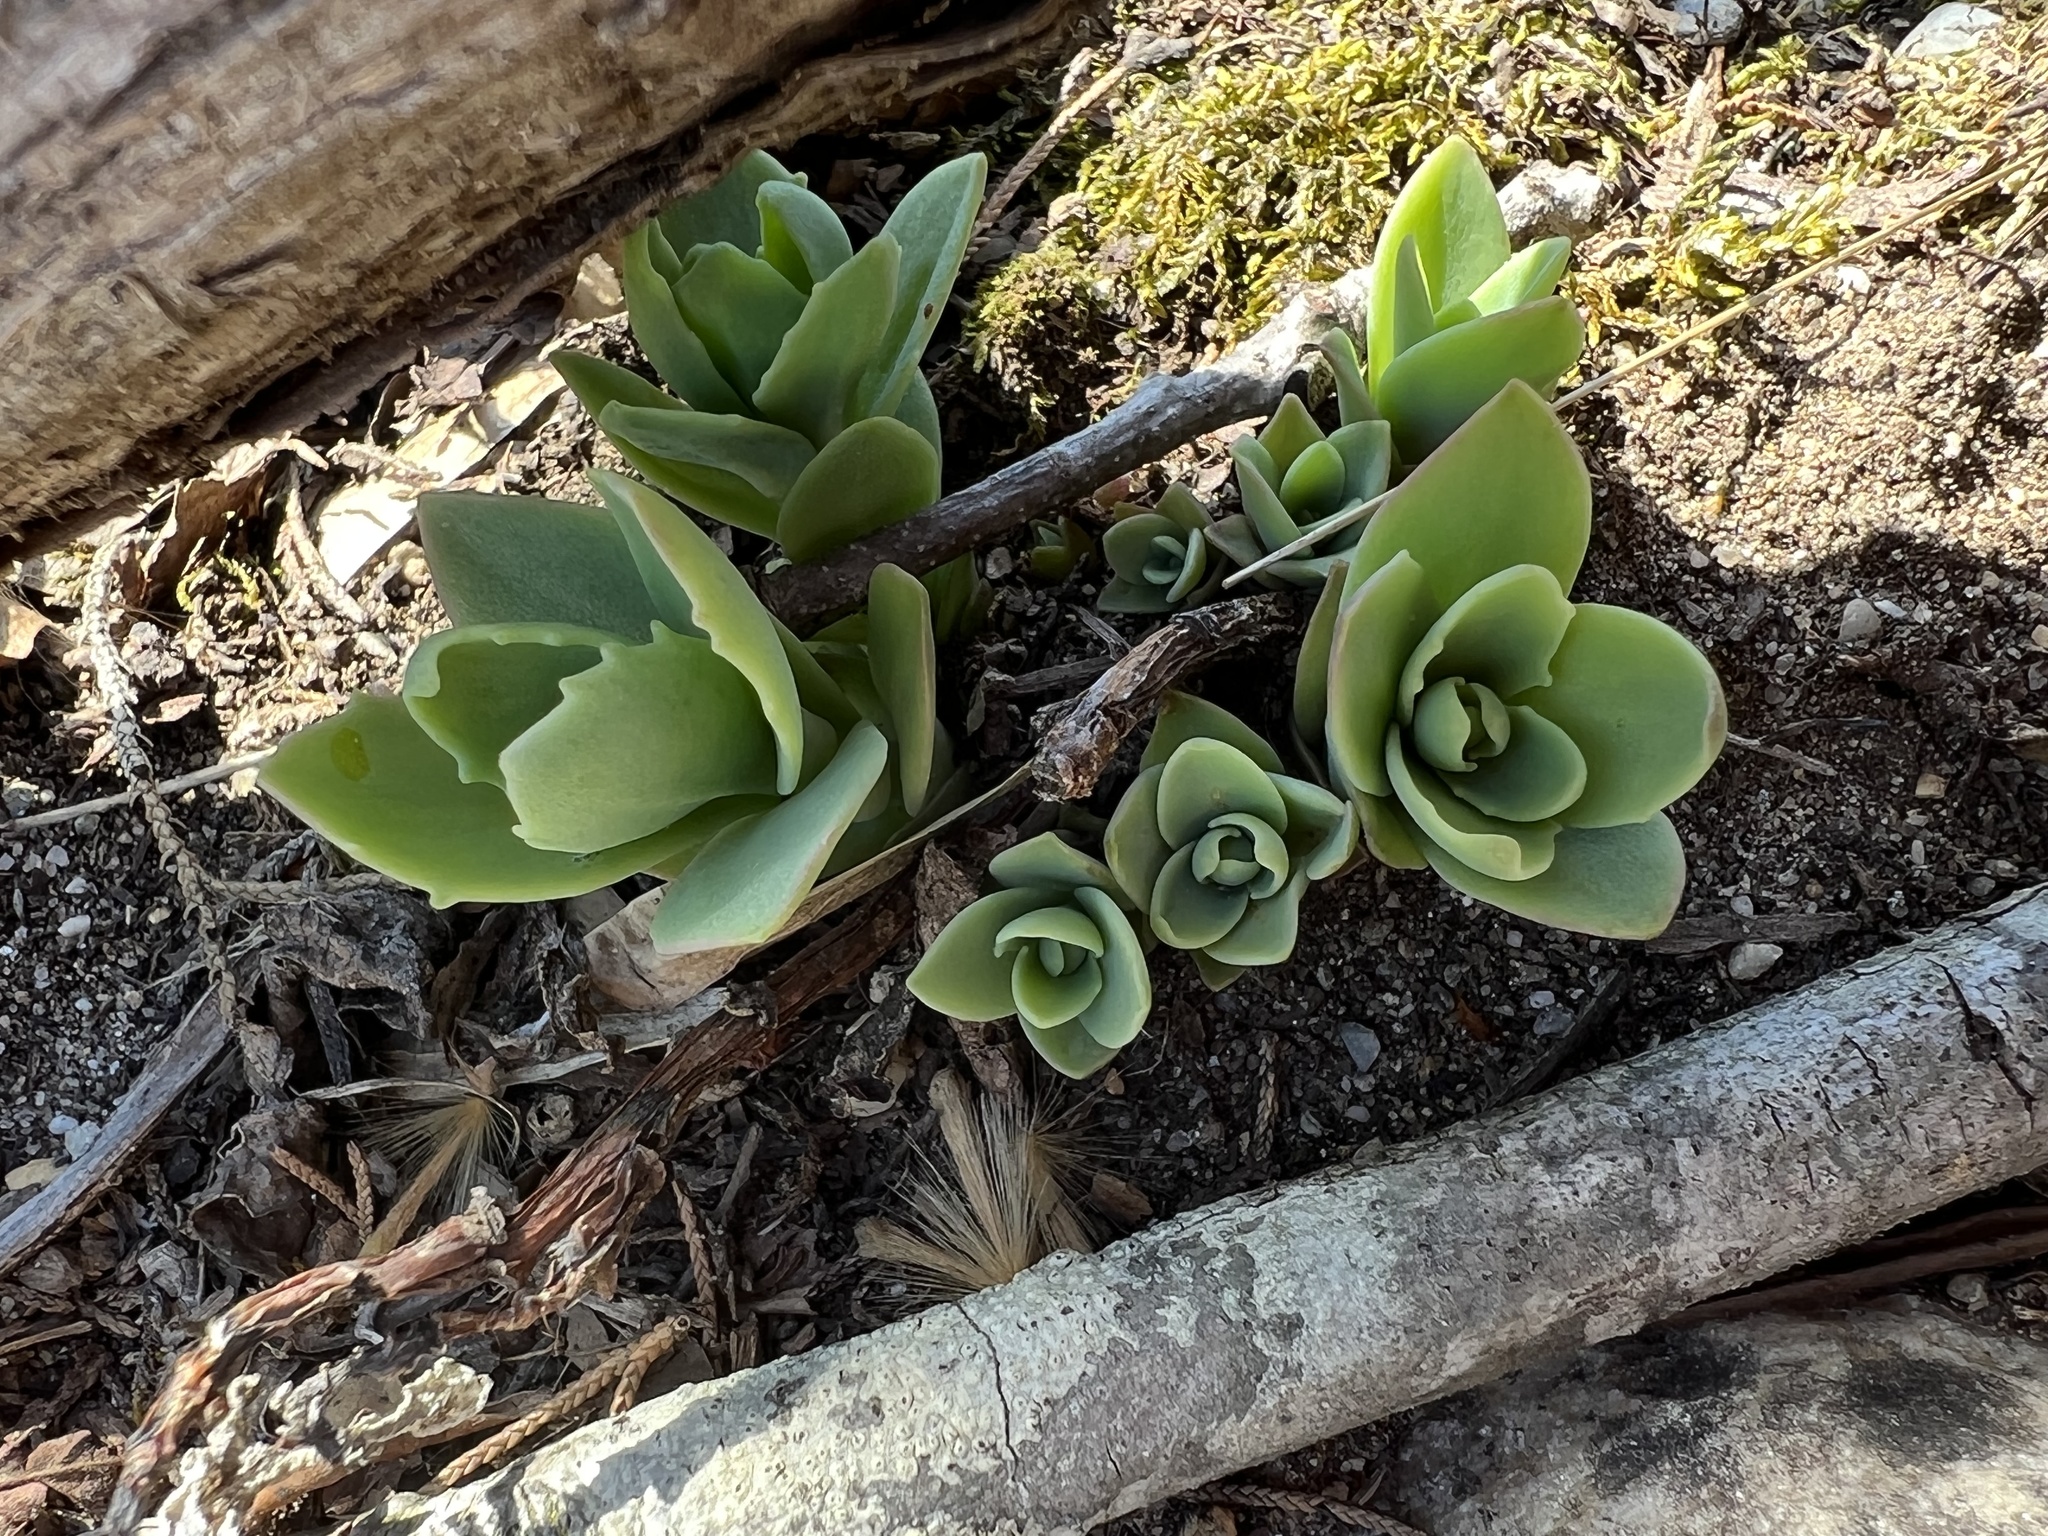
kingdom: Plantae
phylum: Tracheophyta
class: Magnoliopsida
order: Saxifragales
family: Crassulaceae
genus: Hylotelephium
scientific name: Hylotelephium telephioides
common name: Allegheny stonecrop
